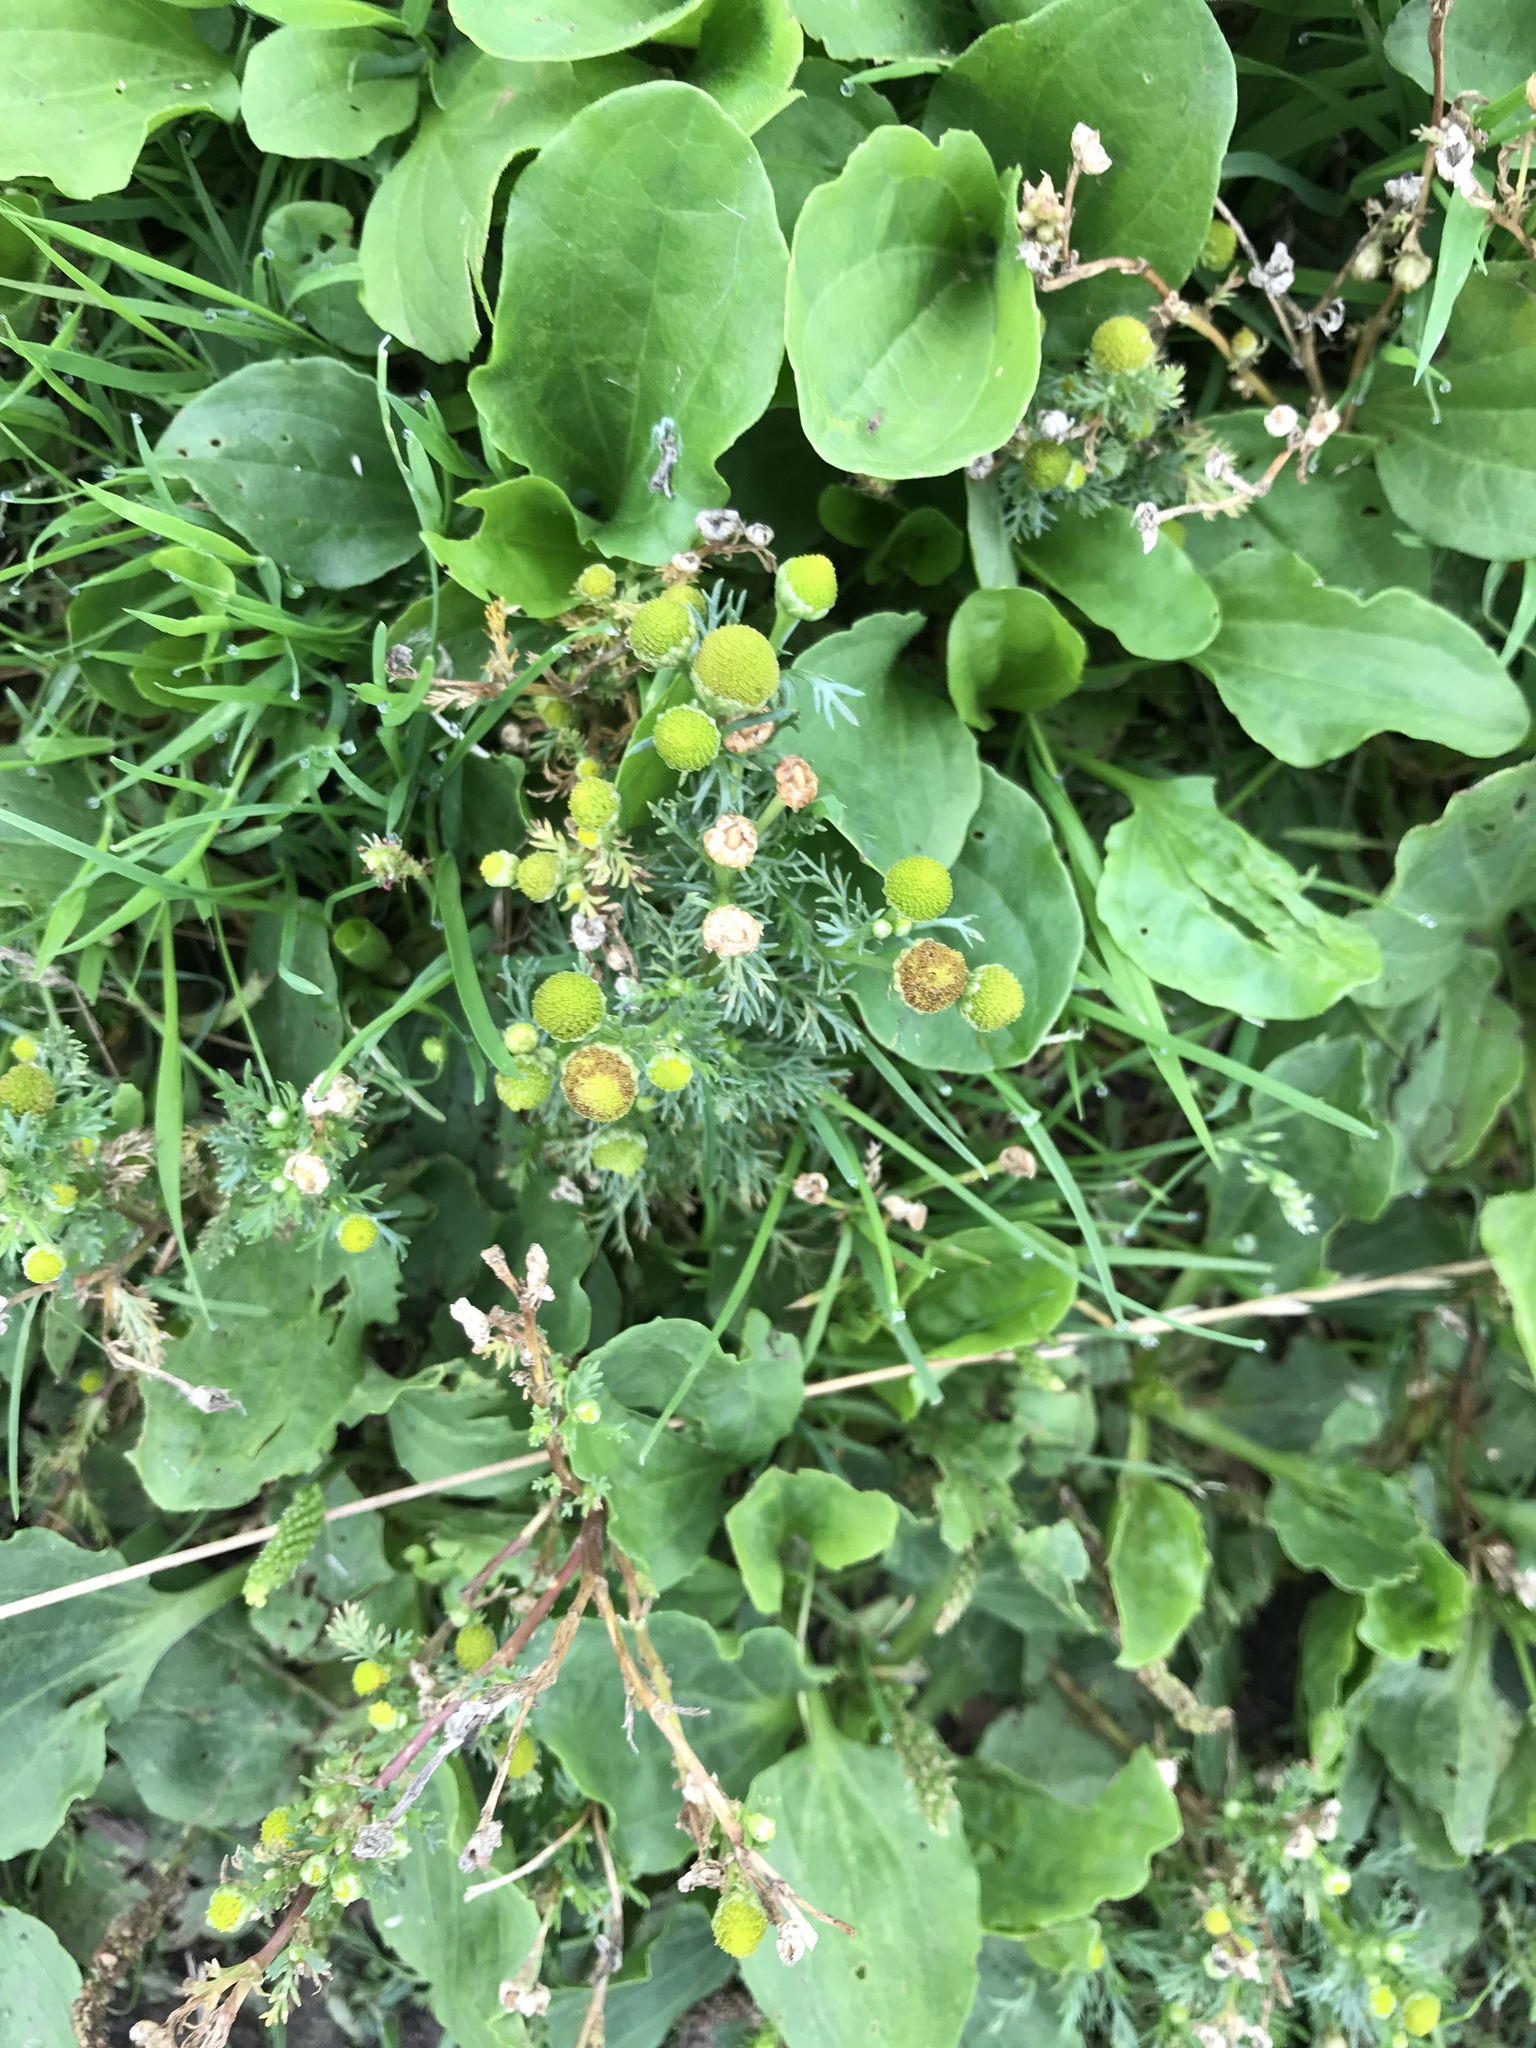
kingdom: Plantae
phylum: Tracheophyta
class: Magnoliopsida
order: Asterales
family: Asteraceae
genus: Matricaria
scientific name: Matricaria discoidea
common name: Disc mayweed
